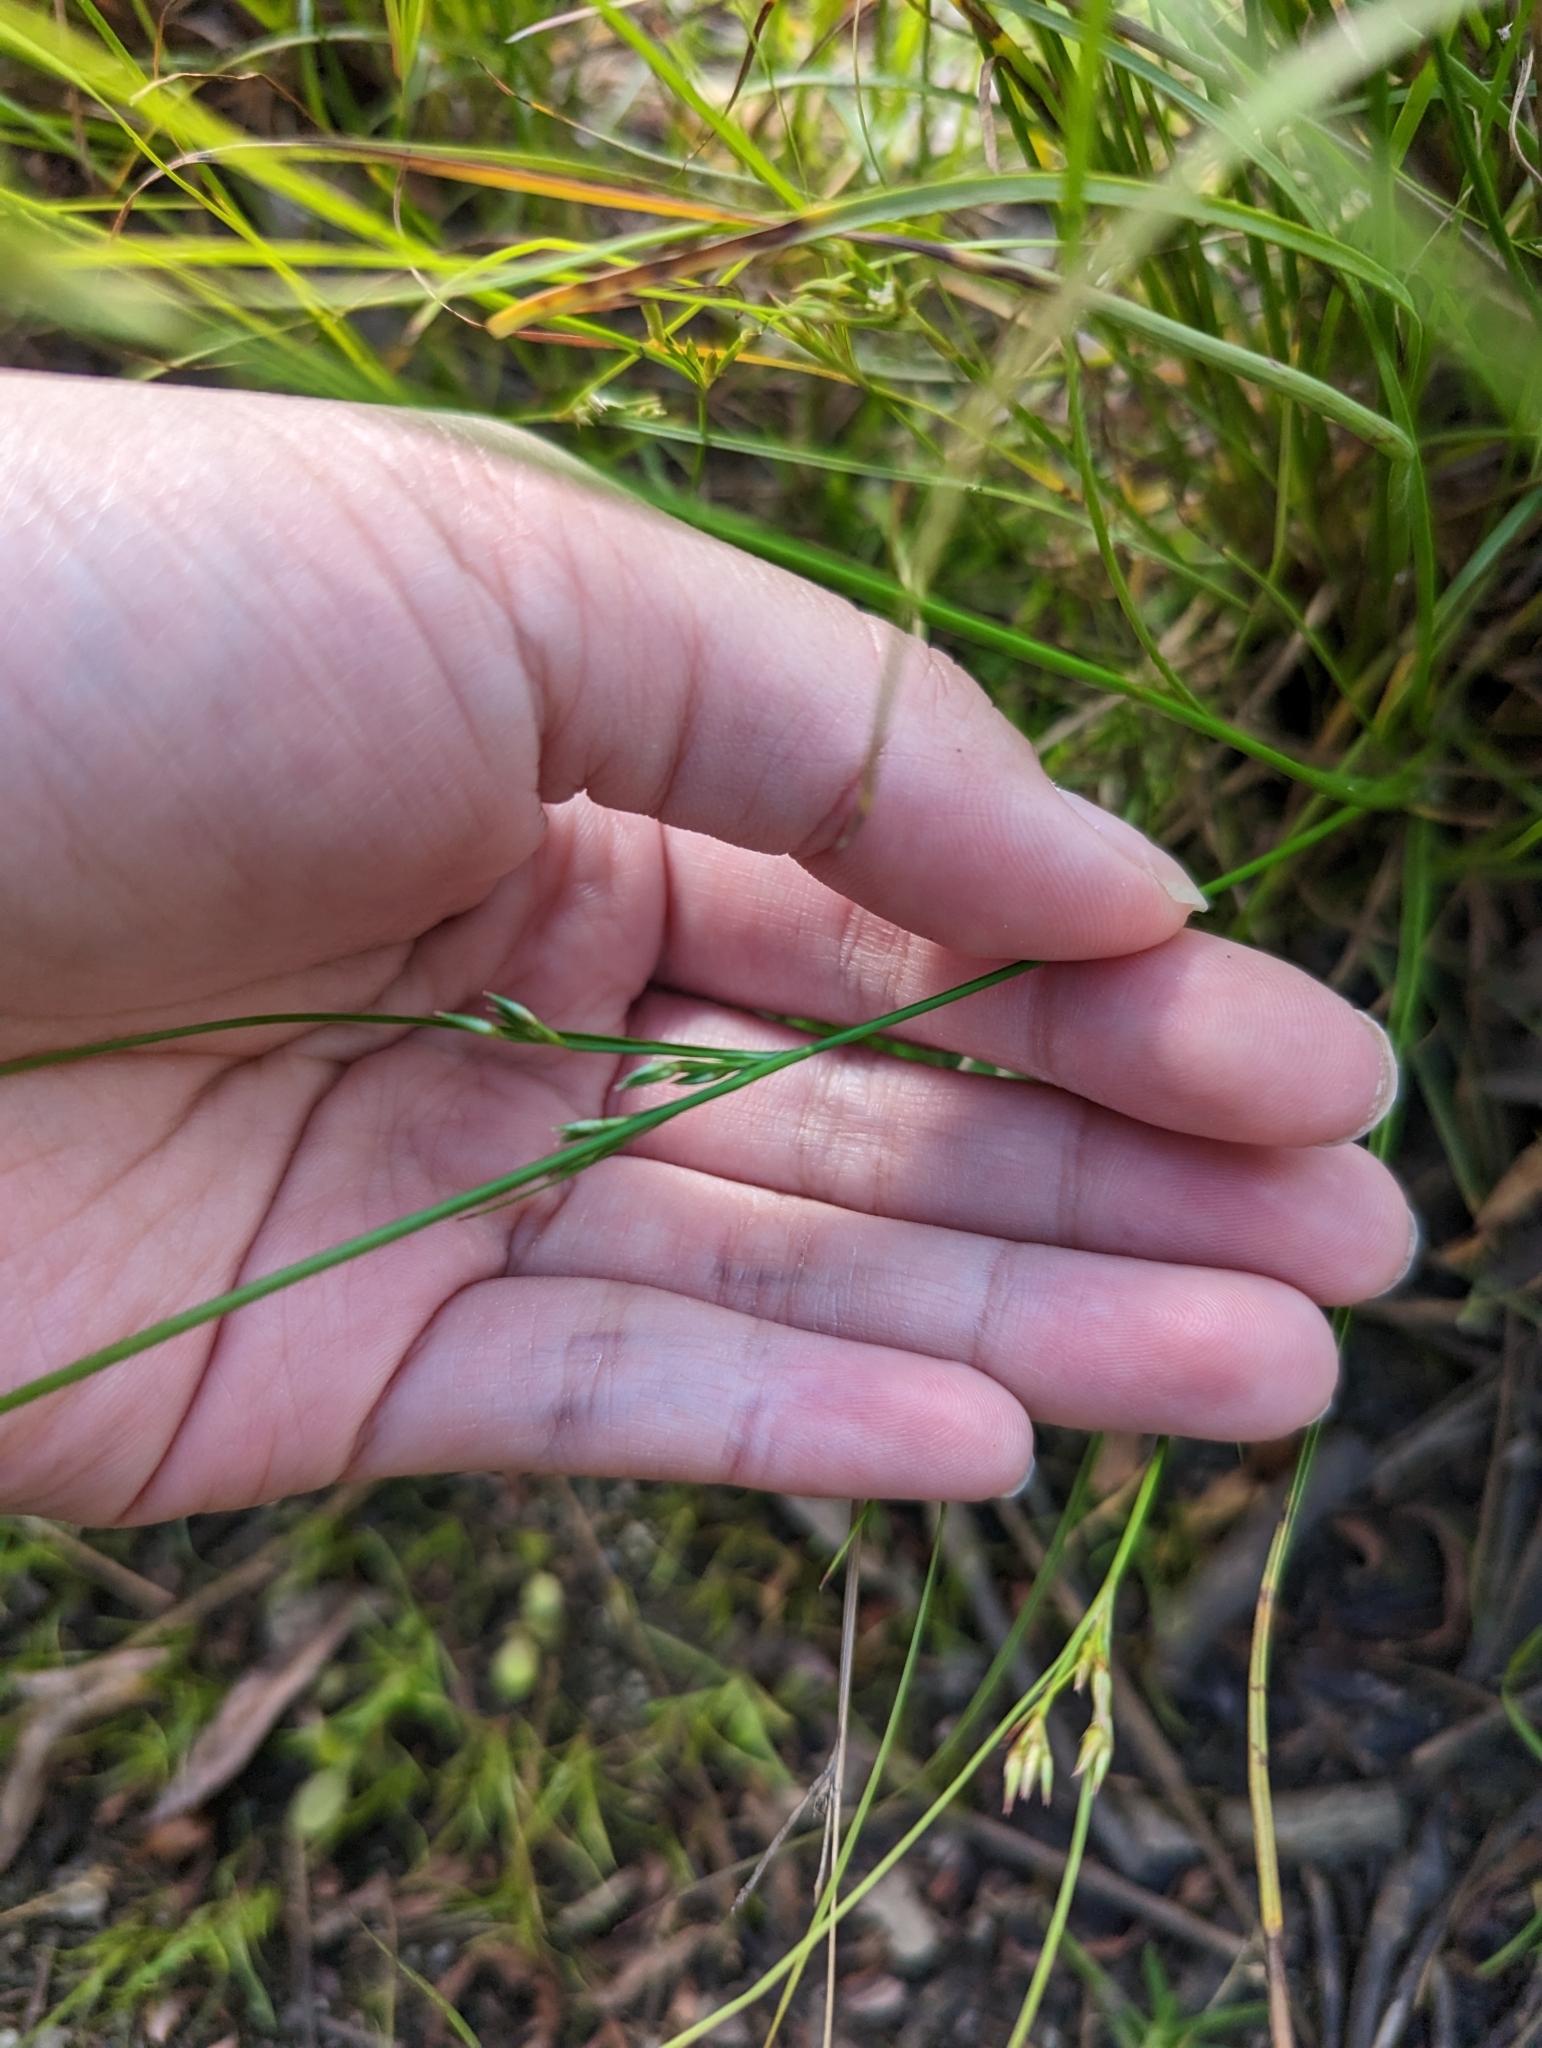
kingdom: Plantae
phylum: Tracheophyta
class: Liliopsida
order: Poales
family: Juncaceae
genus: Juncus
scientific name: Juncus tenuis
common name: Slender rush
